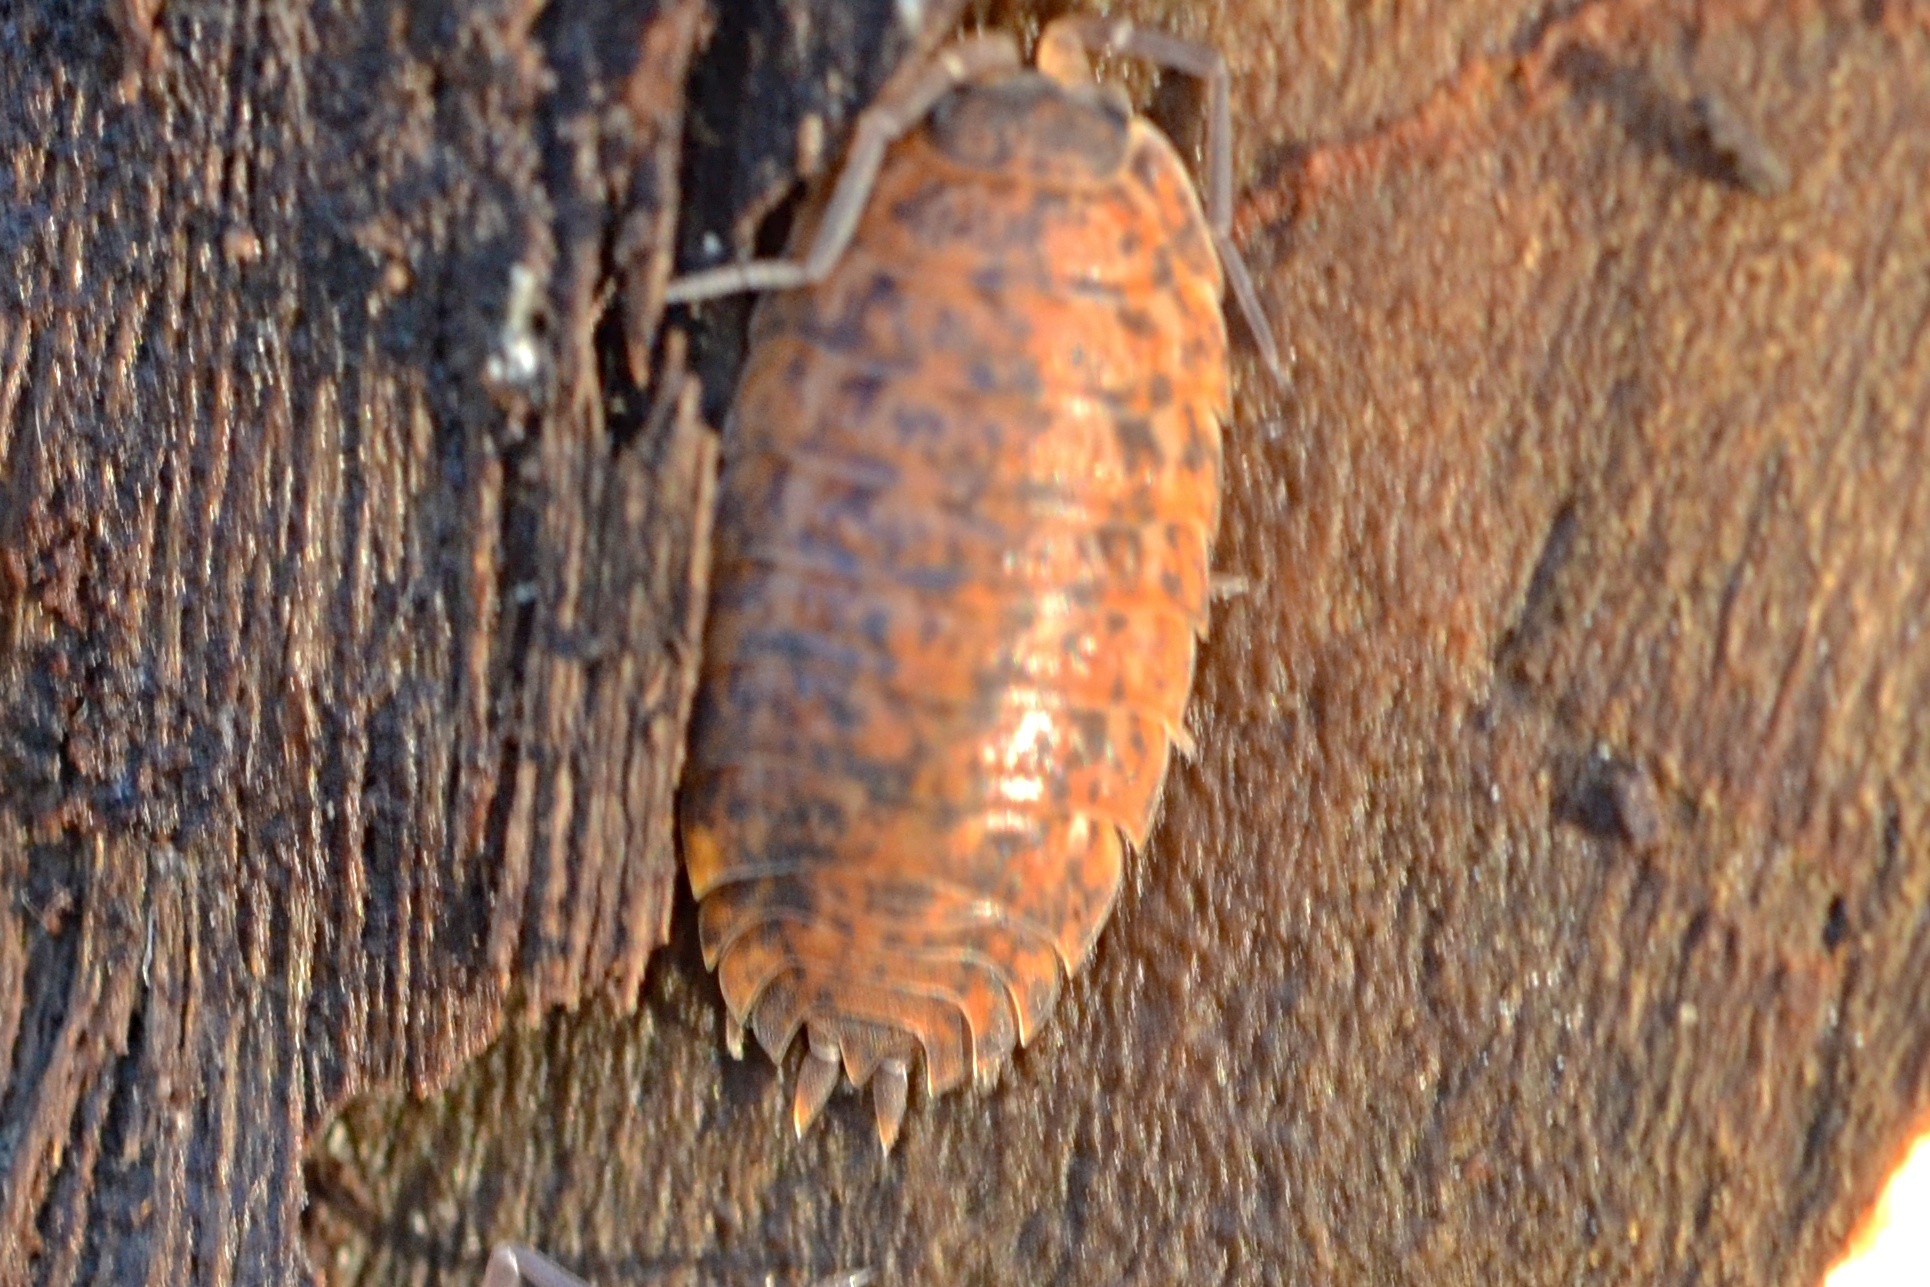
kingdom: Animalia
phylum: Arthropoda
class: Malacostraca
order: Isopoda
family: Trachelipodidae
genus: Trachelipus
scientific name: Trachelipus rathkii
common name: Isopod
